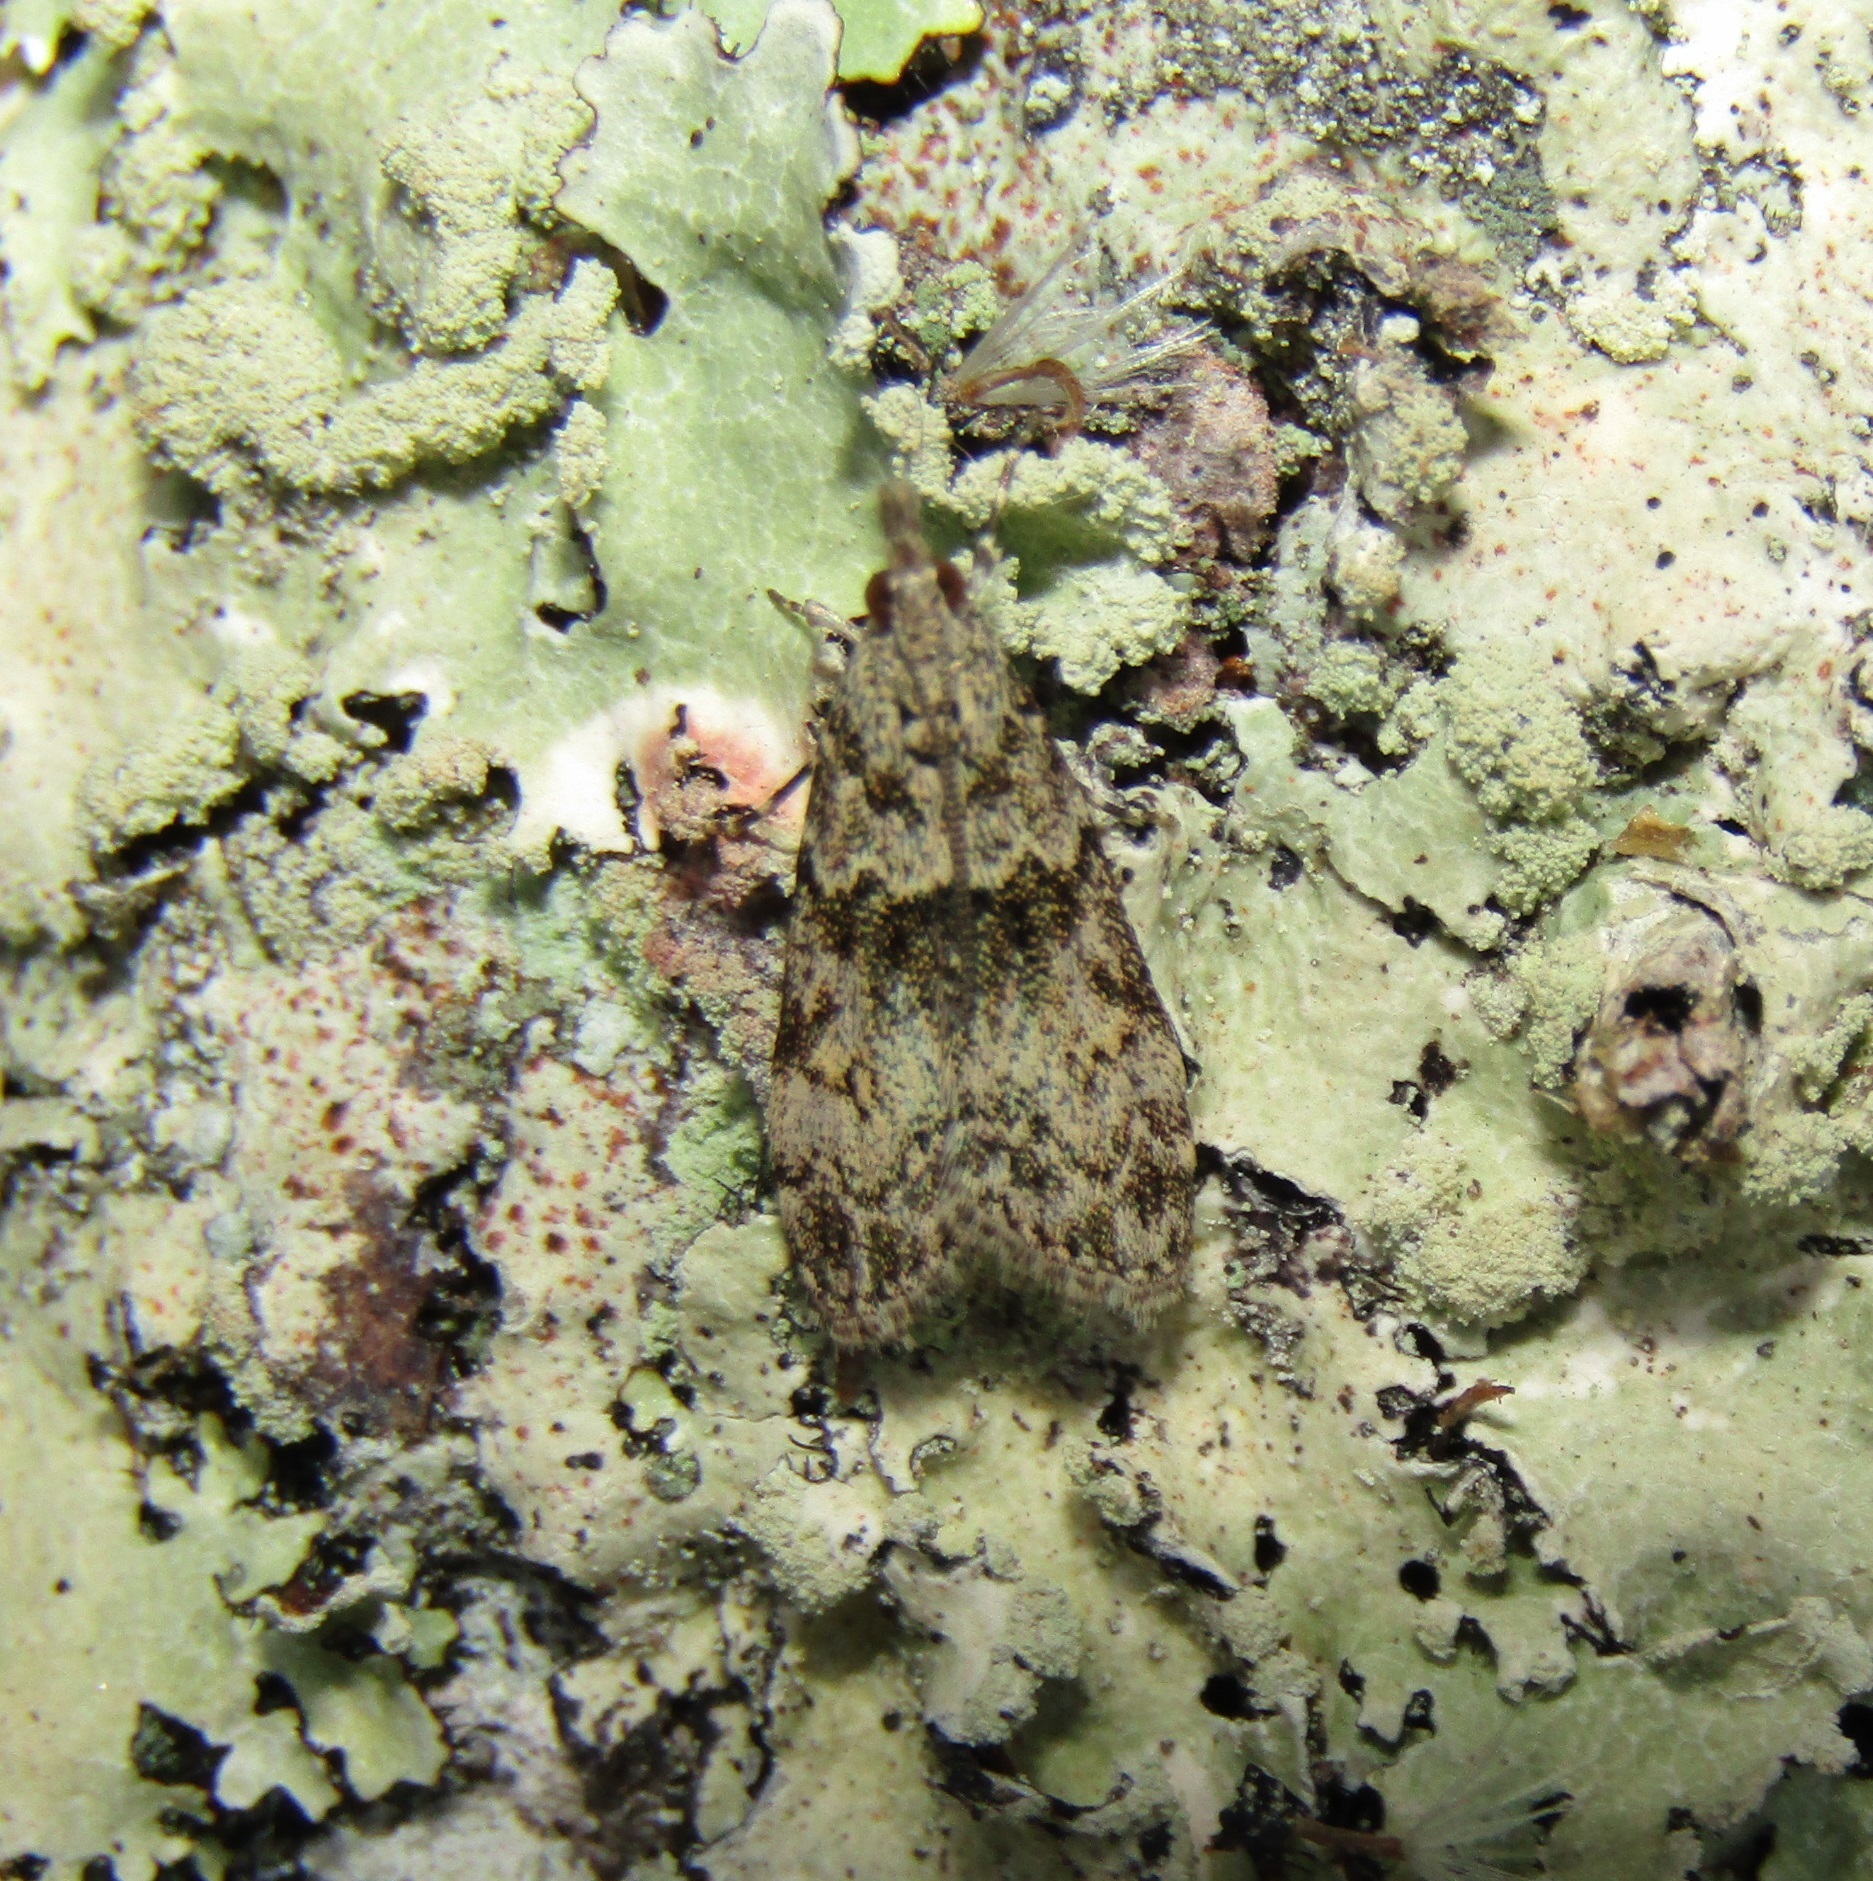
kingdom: Animalia
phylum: Arthropoda
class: Insecta
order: Lepidoptera
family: Crambidae
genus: Eudonia
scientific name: Eudonia subditella
